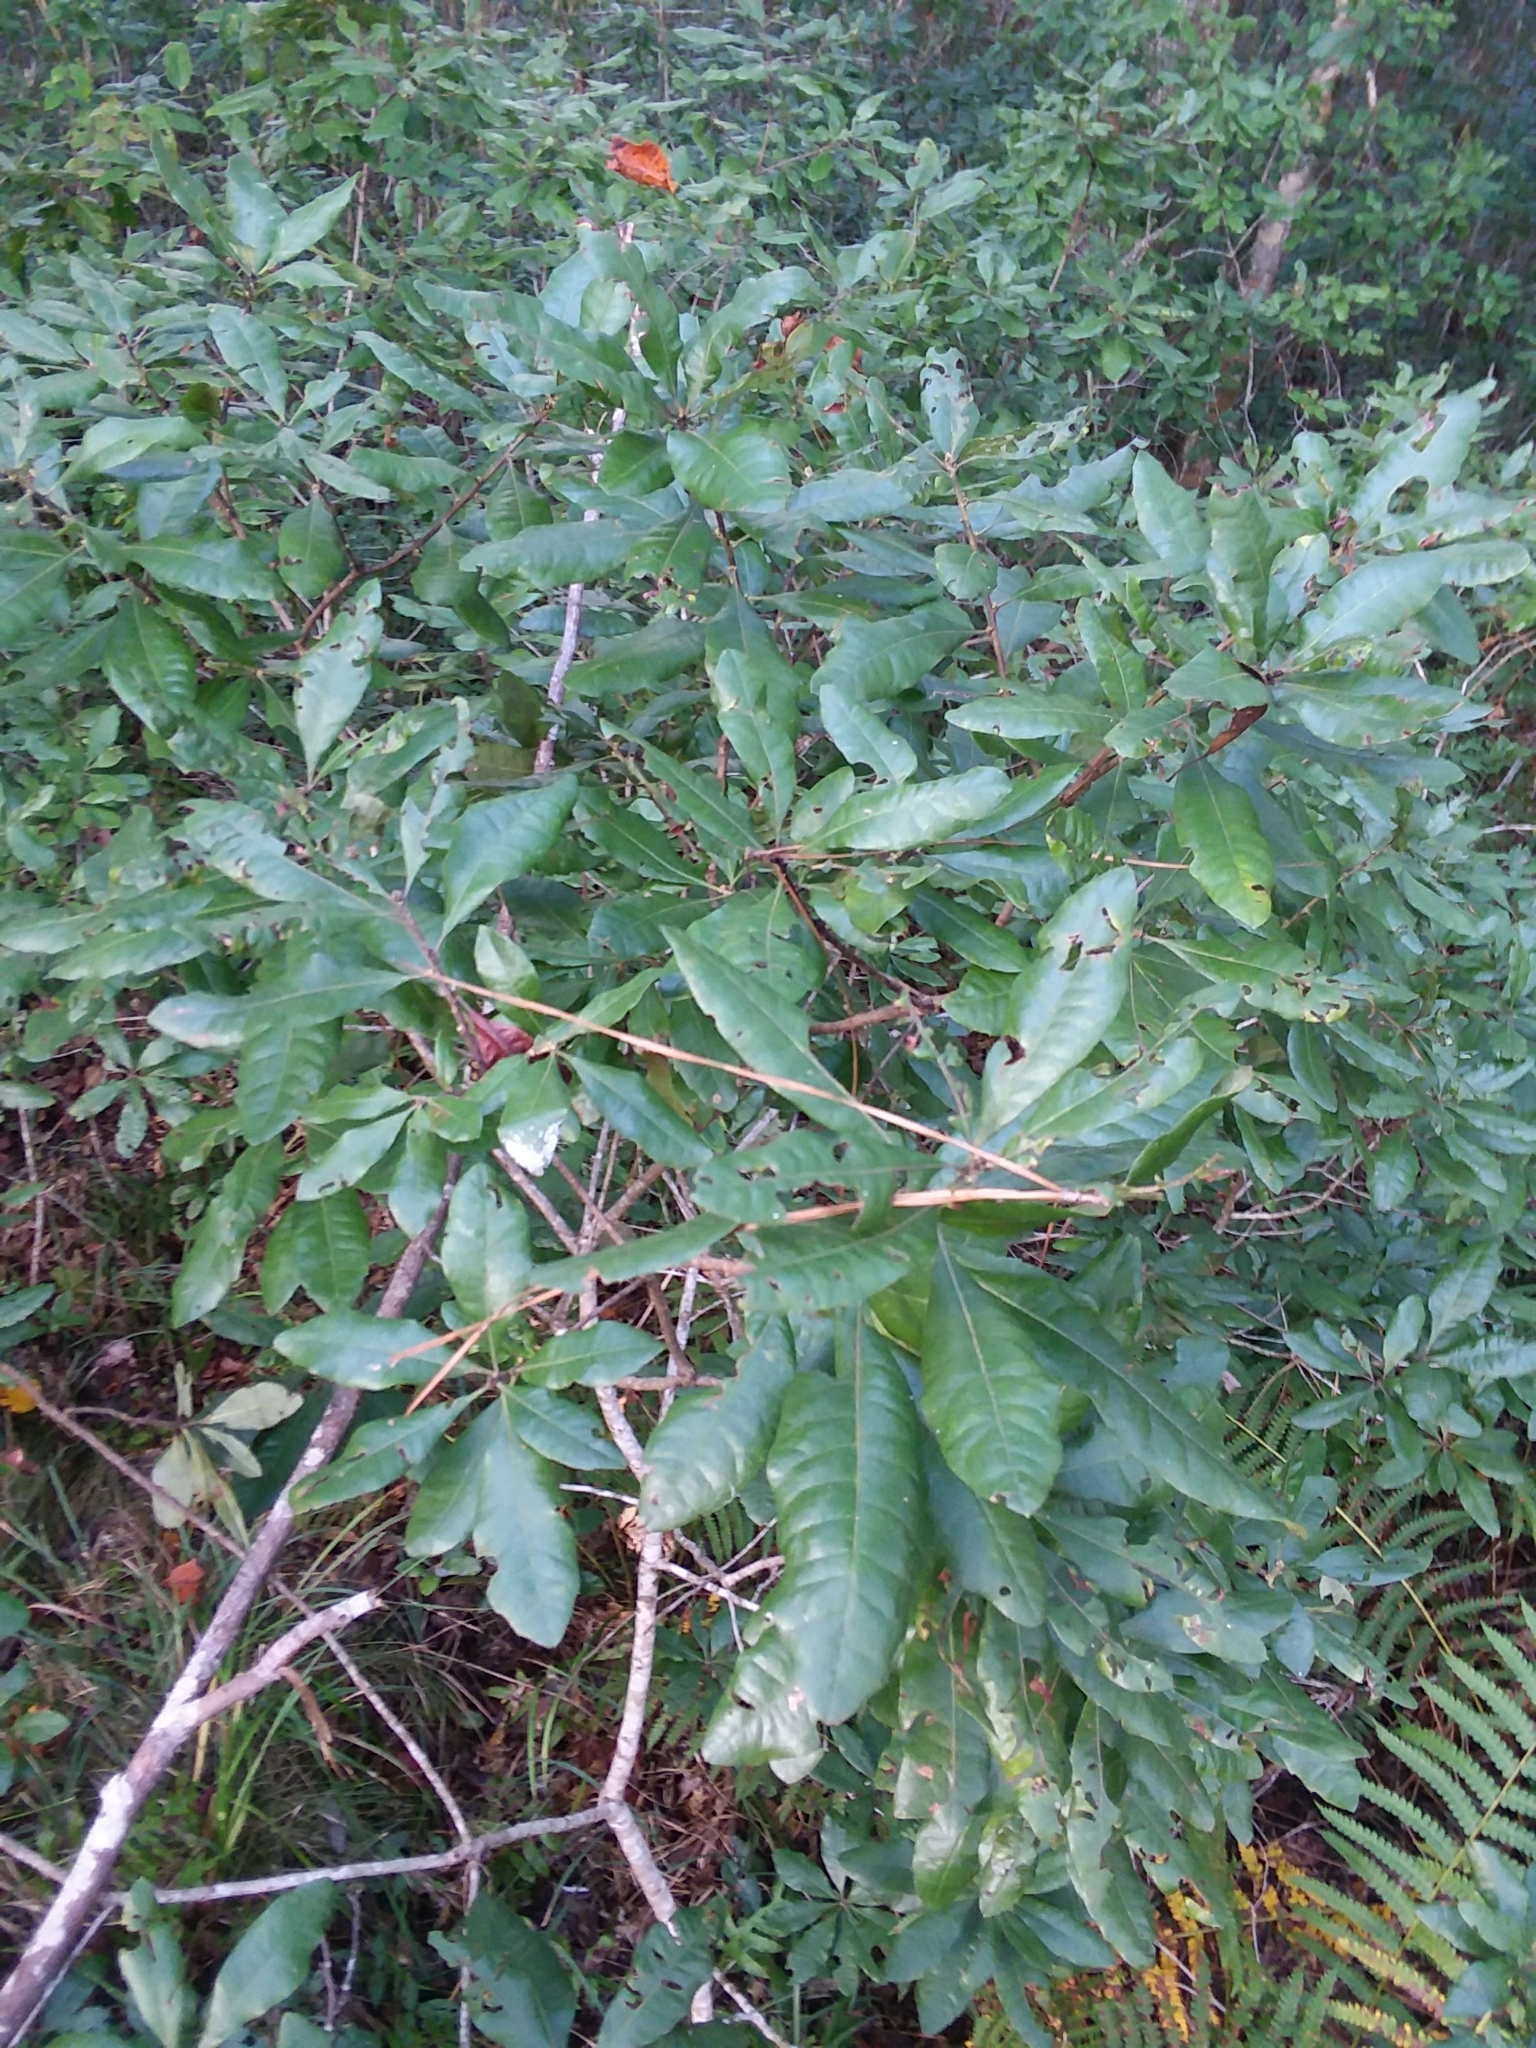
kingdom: Plantae
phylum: Tracheophyta
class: Magnoliopsida
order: Fagales
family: Myricaceae
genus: Morella
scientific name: Morella caroliniensis
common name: Evergreen bayberry
